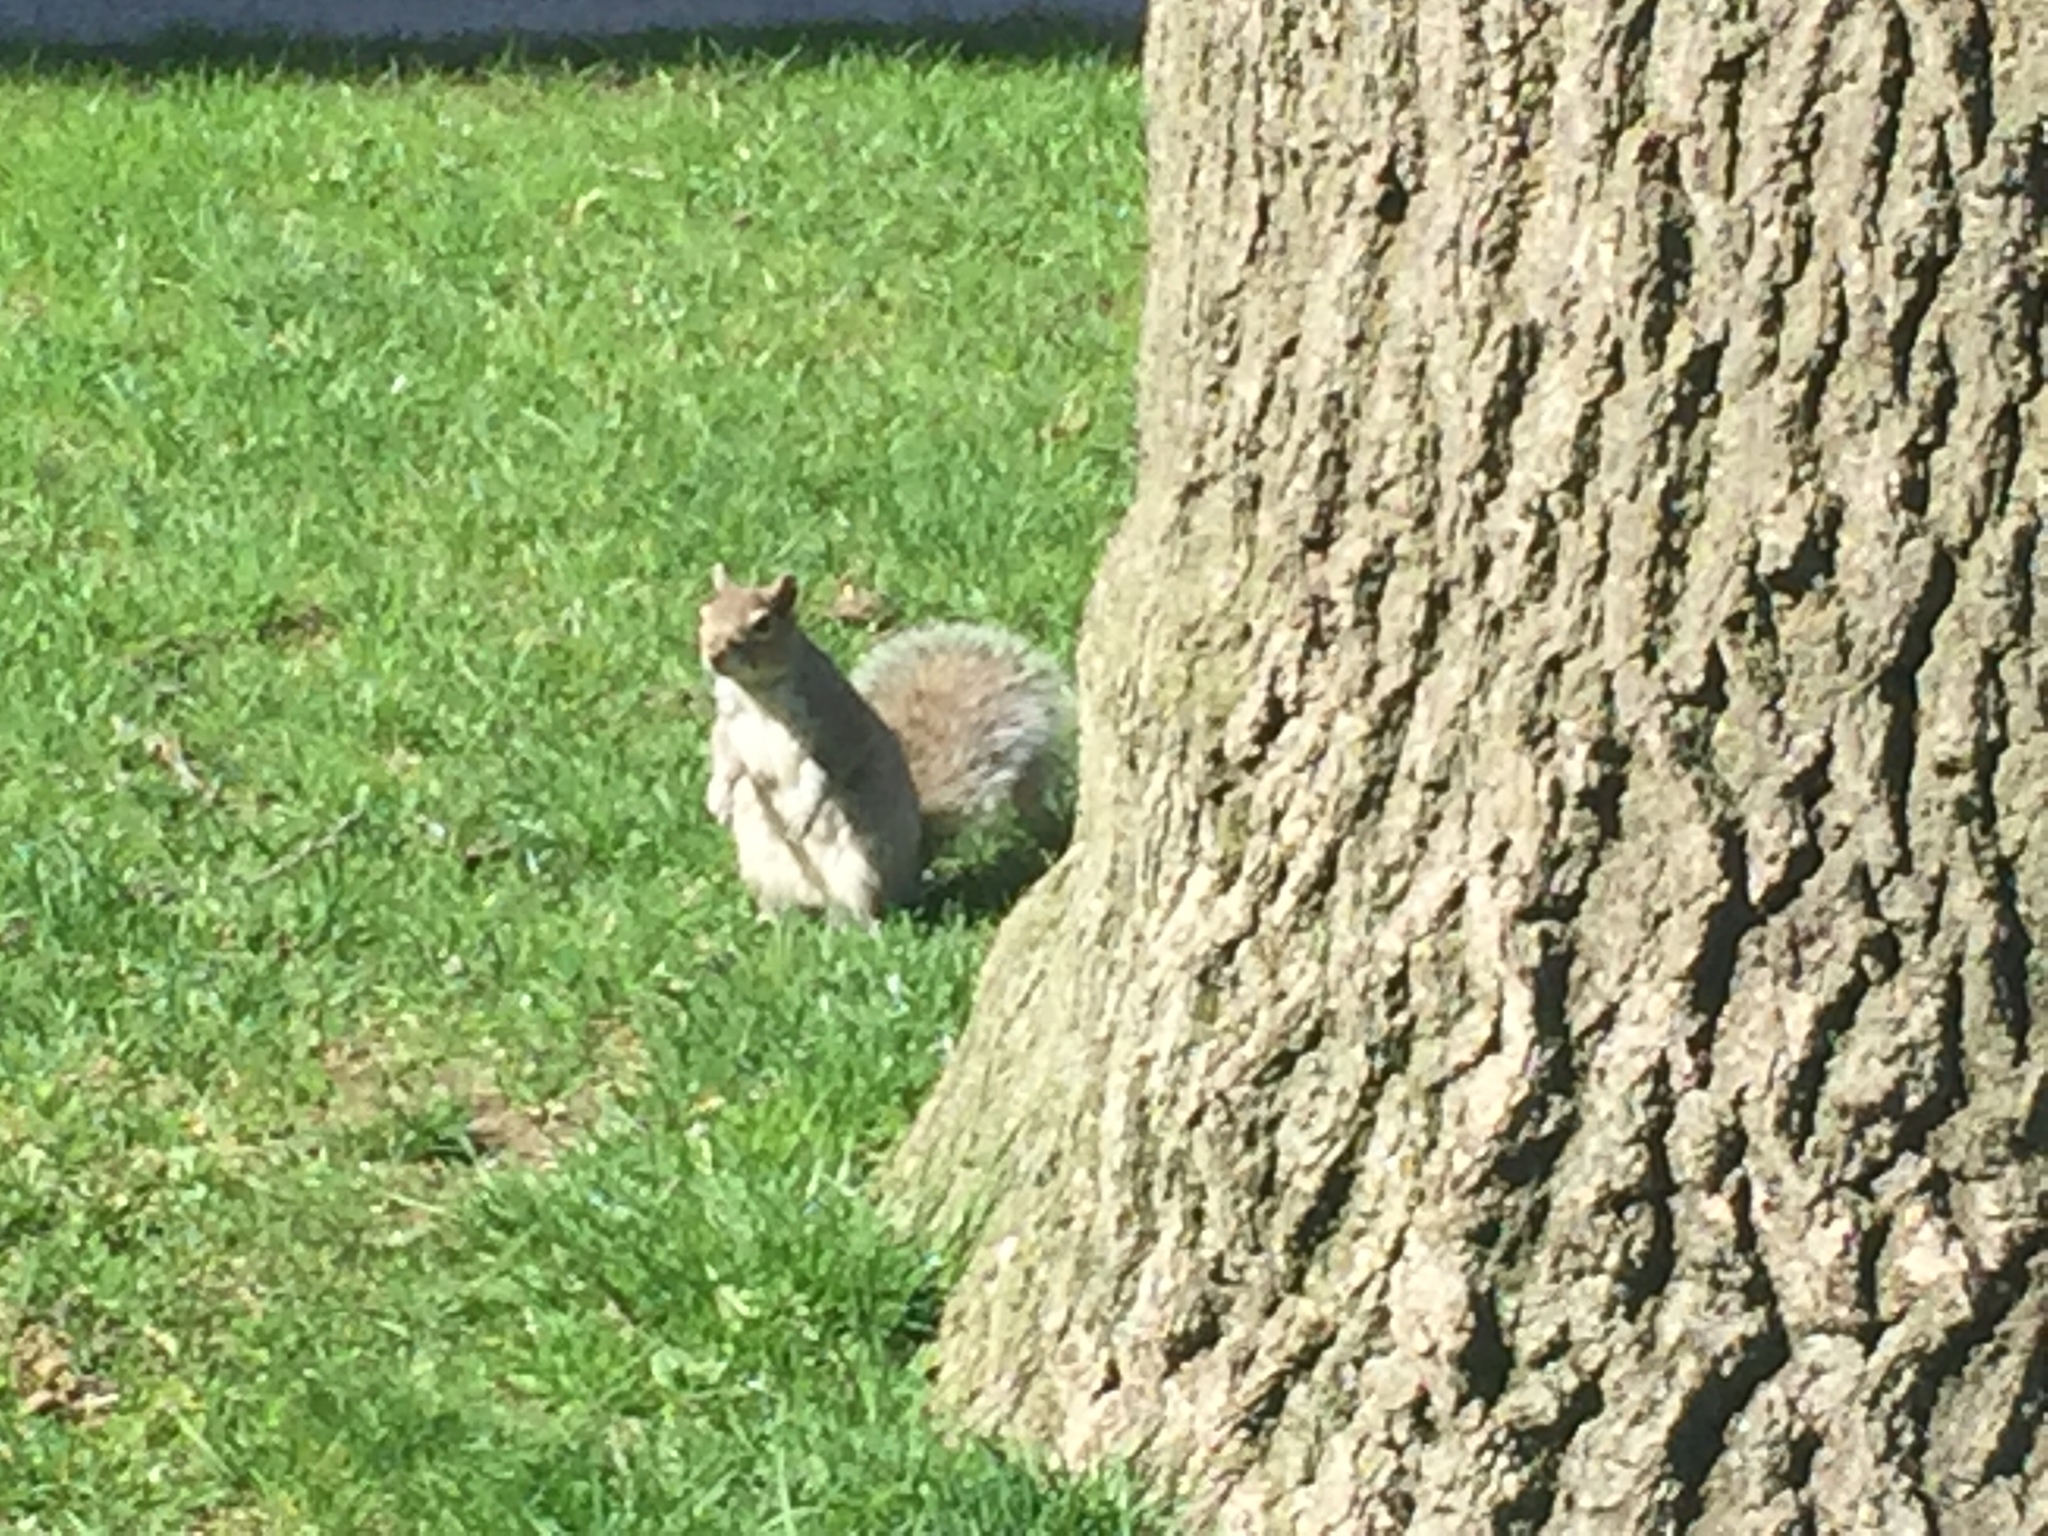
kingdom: Animalia
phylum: Chordata
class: Mammalia
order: Rodentia
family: Sciuridae
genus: Sciurus
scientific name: Sciurus carolinensis
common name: Eastern gray squirrel
